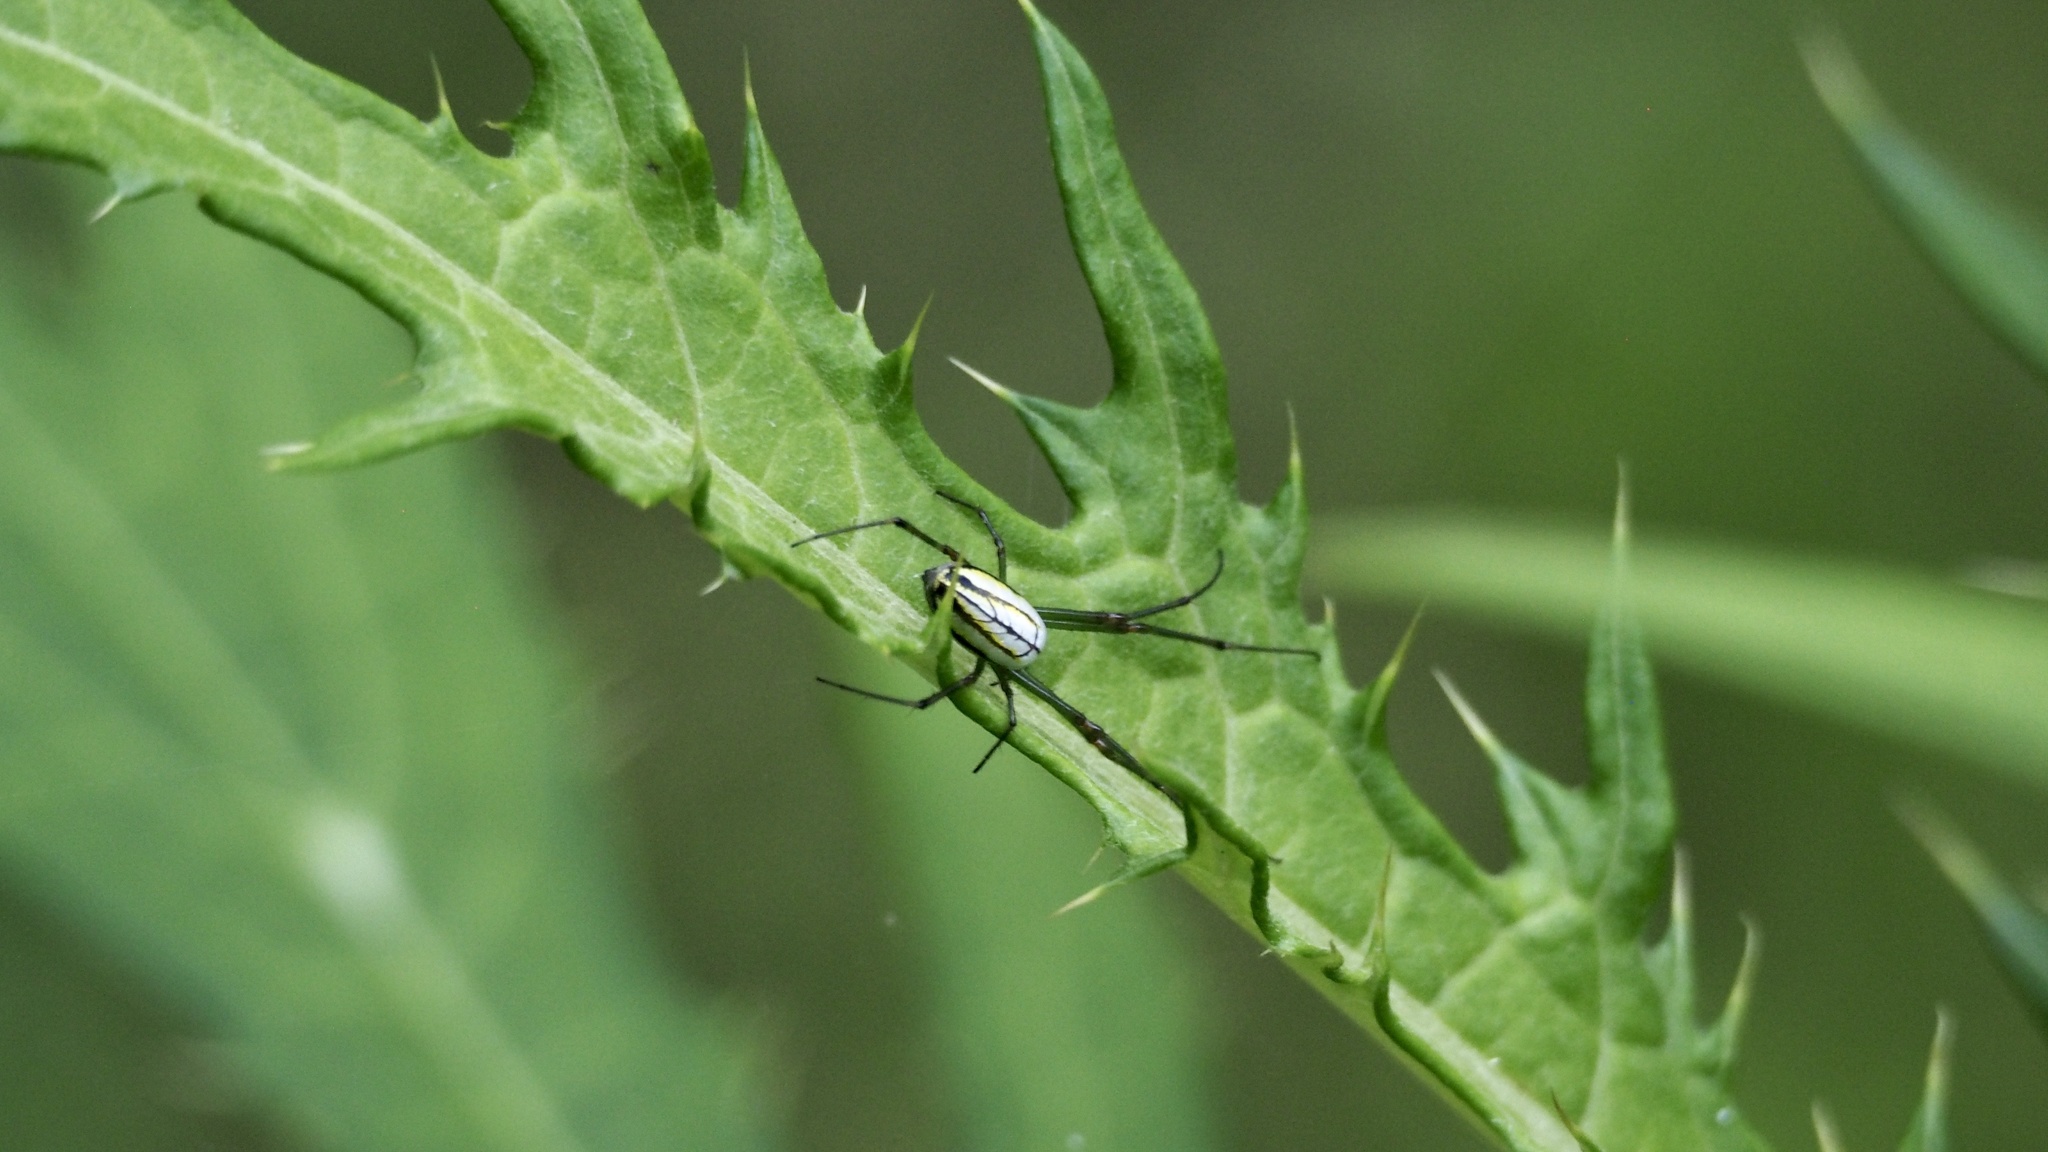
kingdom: Animalia
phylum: Arthropoda
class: Arachnida
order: Araneae
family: Tetragnathidae
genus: Leucauge
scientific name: Leucauge celebesiana
